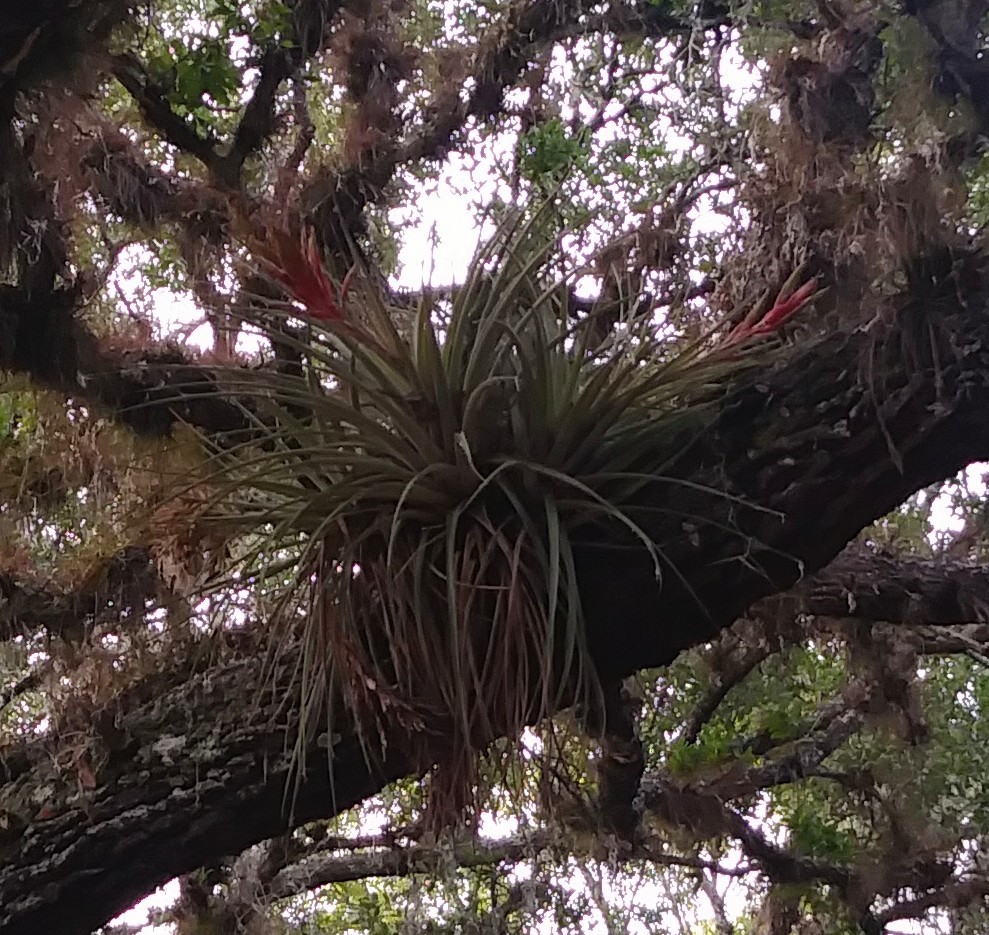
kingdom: Plantae
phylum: Tracheophyta
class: Liliopsida
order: Poales
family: Bromeliaceae
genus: Tillandsia
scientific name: Tillandsia fasciculata
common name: Giant airplant
